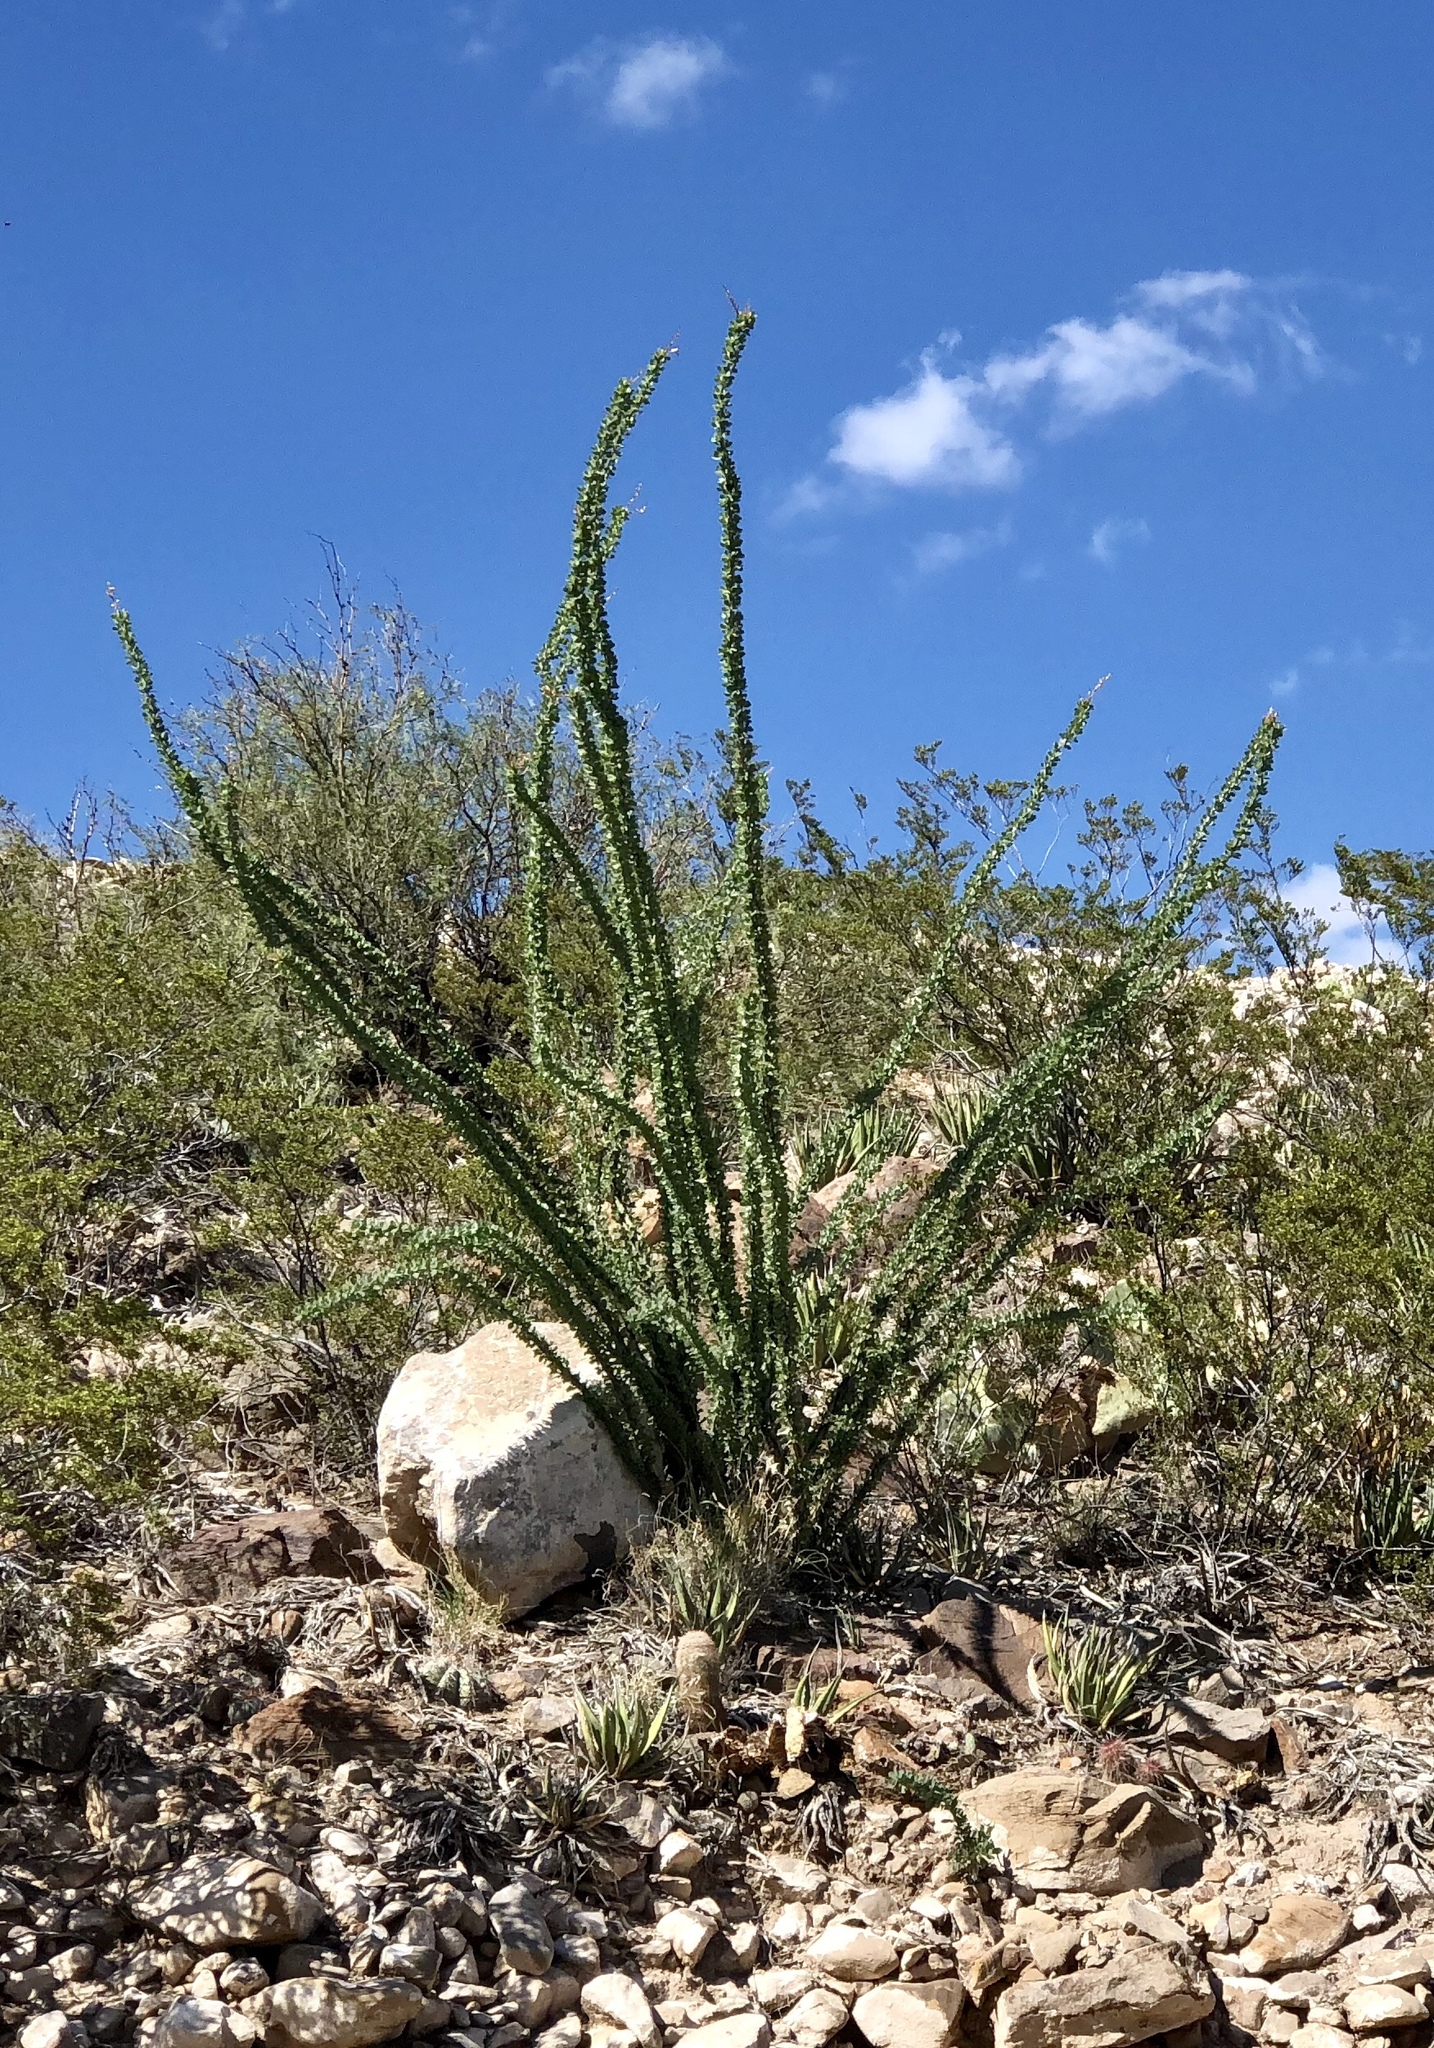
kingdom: Plantae
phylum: Tracheophyta
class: Magnoliopsida
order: Ericales
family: Fouquieriaceae
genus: Fouquieria
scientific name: Fouquieria splendens
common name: Vine-cactus
